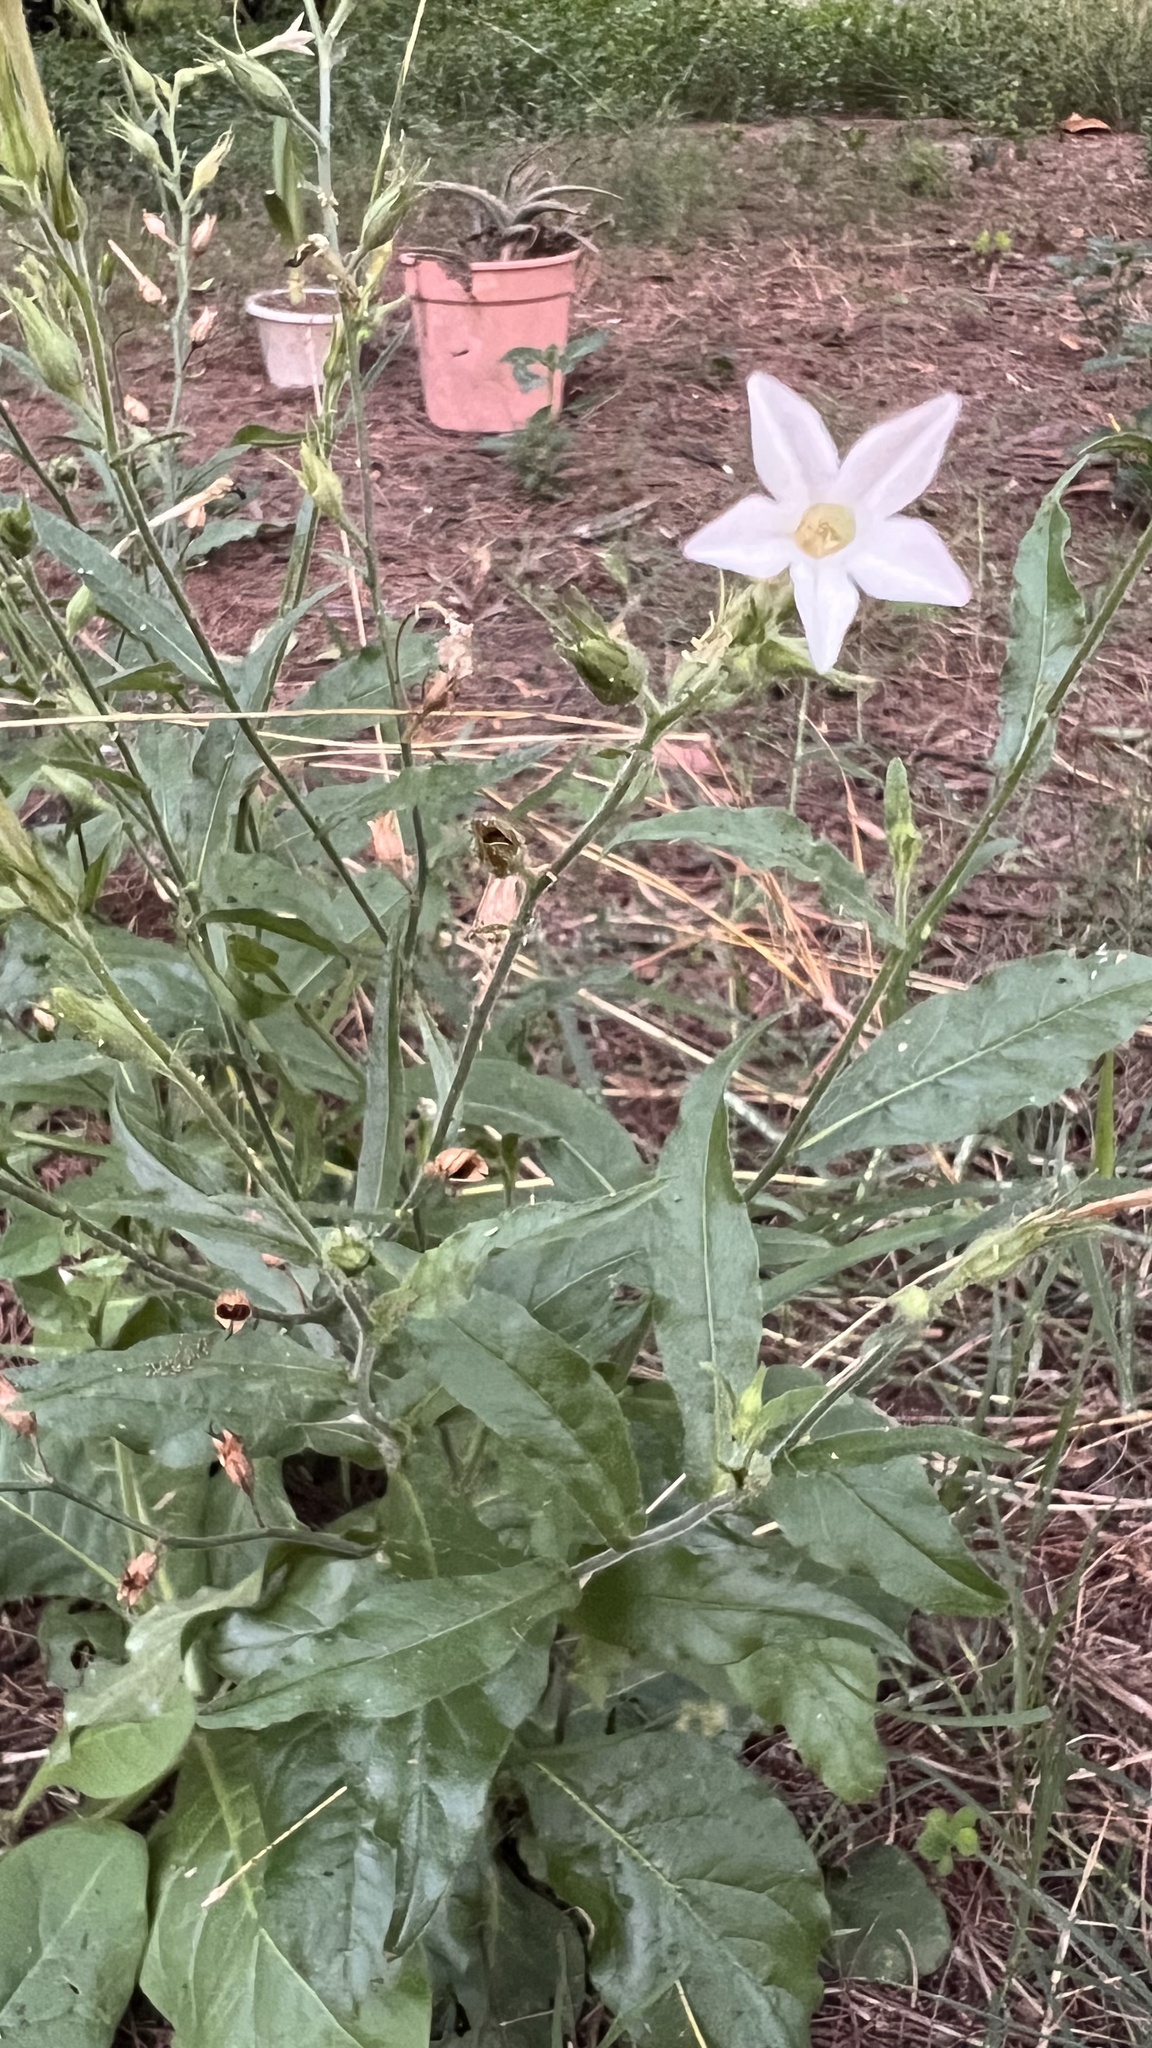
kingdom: Plantae
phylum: Tracheophyta
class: Magnoliopsida
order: Solanales
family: Solanaceae
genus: Nicotiana
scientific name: Nicotiana plumbaginifolia
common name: Tex-mex tobacco
